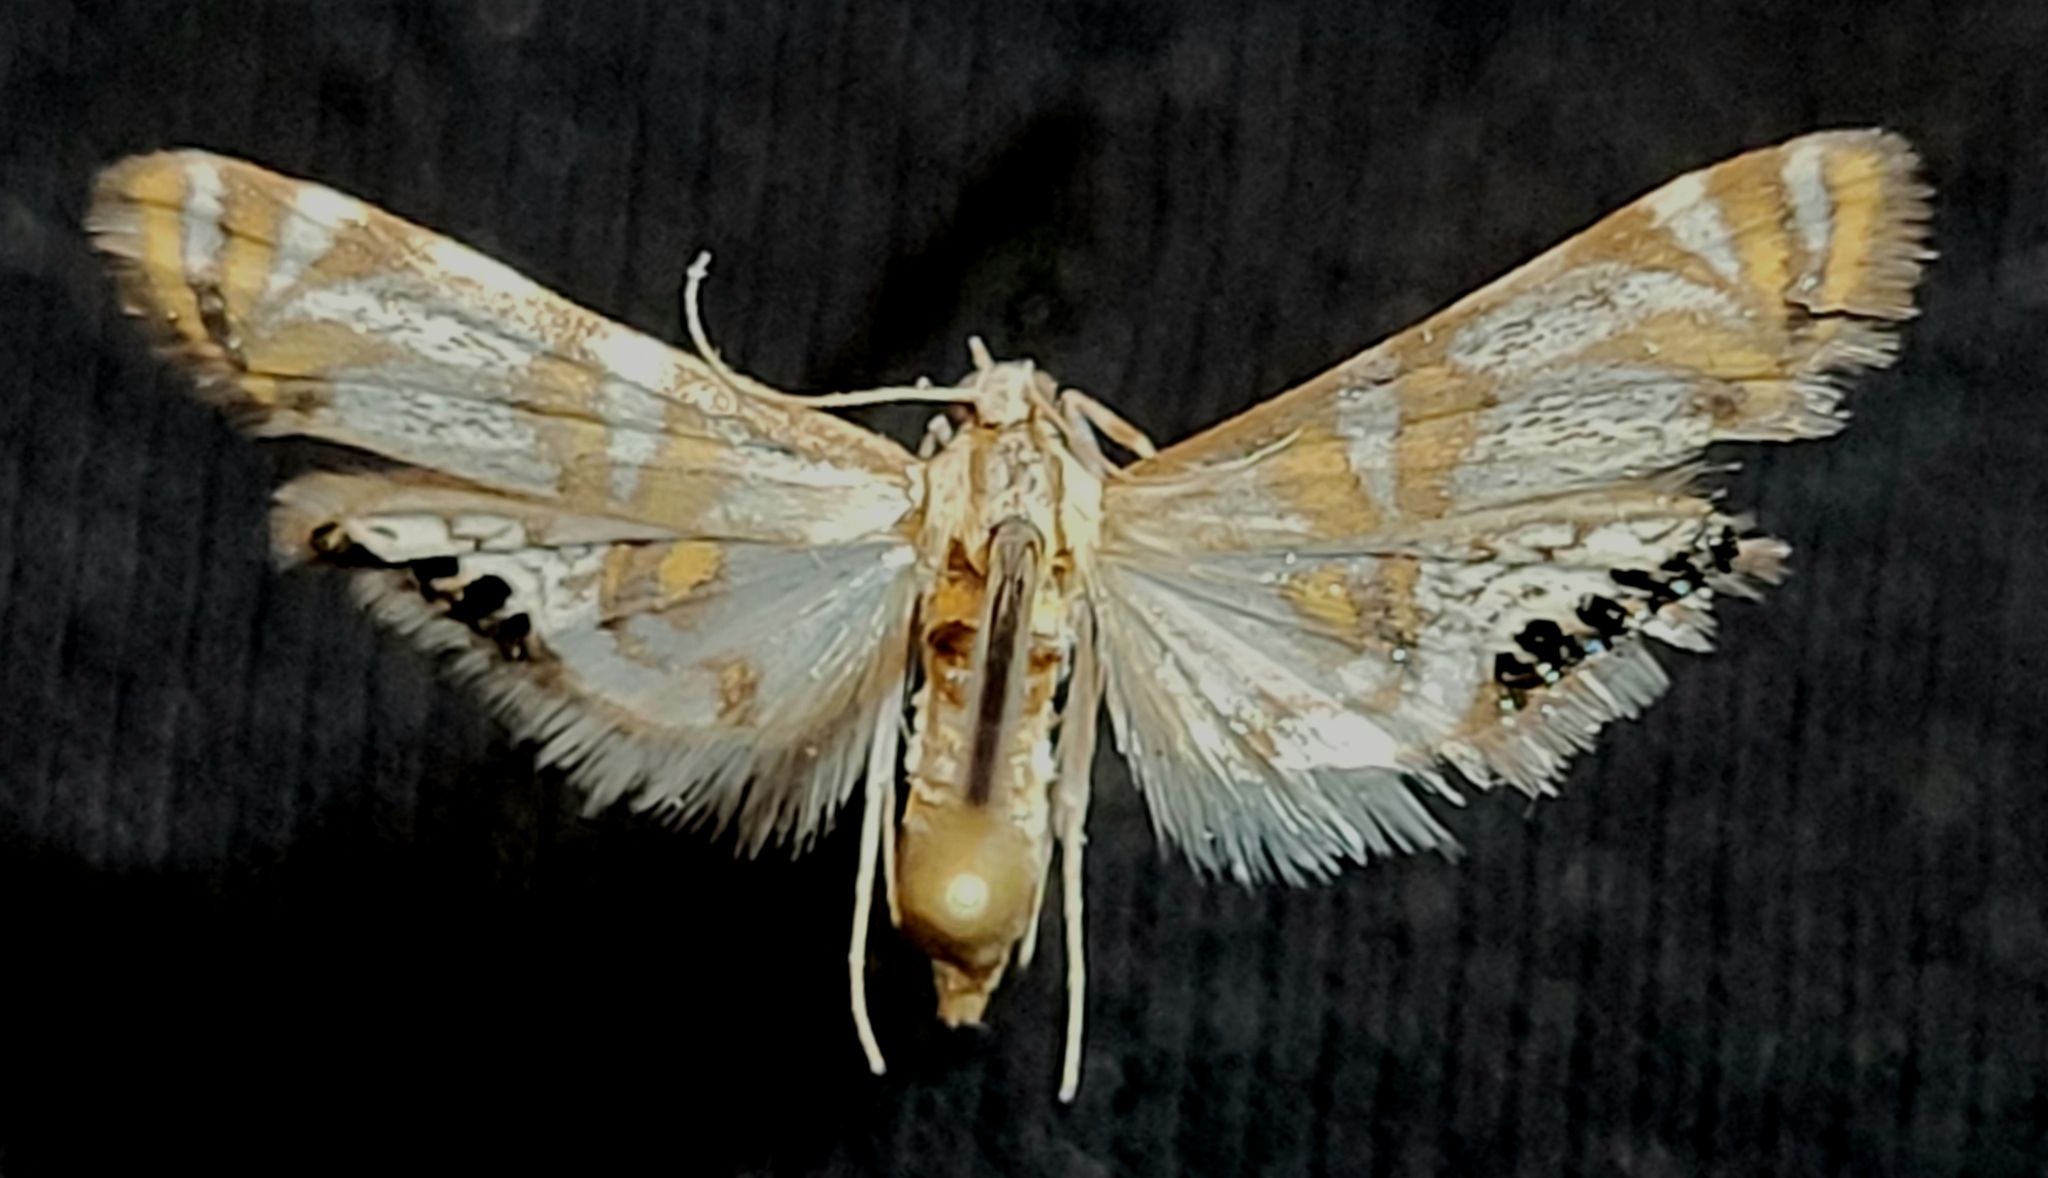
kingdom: Animalia
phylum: Arthropoda
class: Insecta
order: Lepidoptera
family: Crambidae
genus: Petrophila
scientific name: Petrophila kearfottalis
